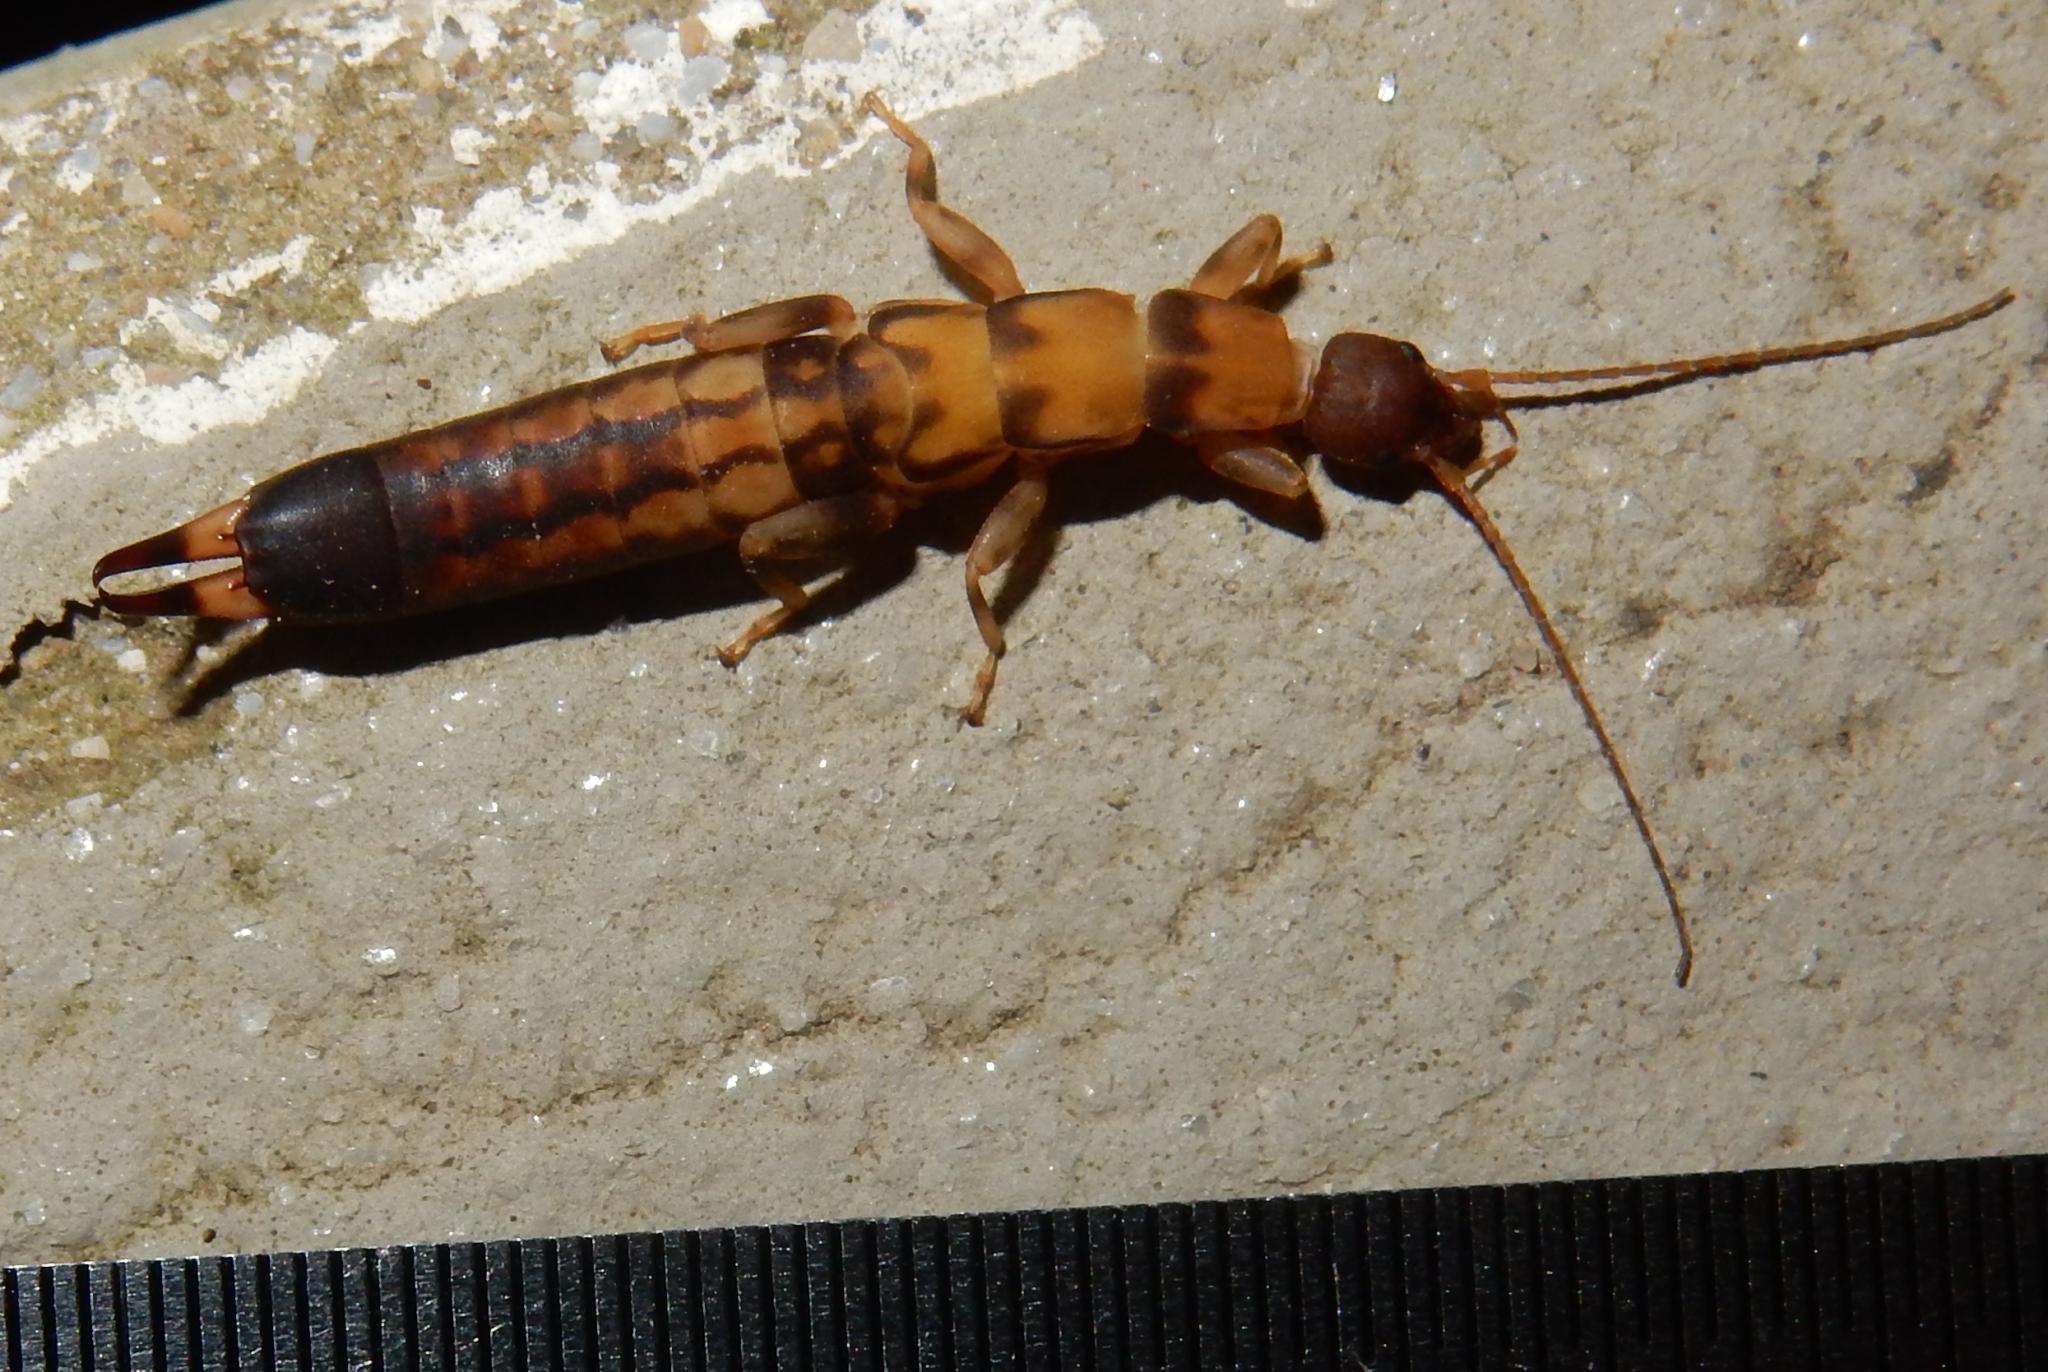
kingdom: Animalia
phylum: Arthropoda
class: Insecta
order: Dermaptera
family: Pygidicranidae
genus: Blandex
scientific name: Blandex variegatus
